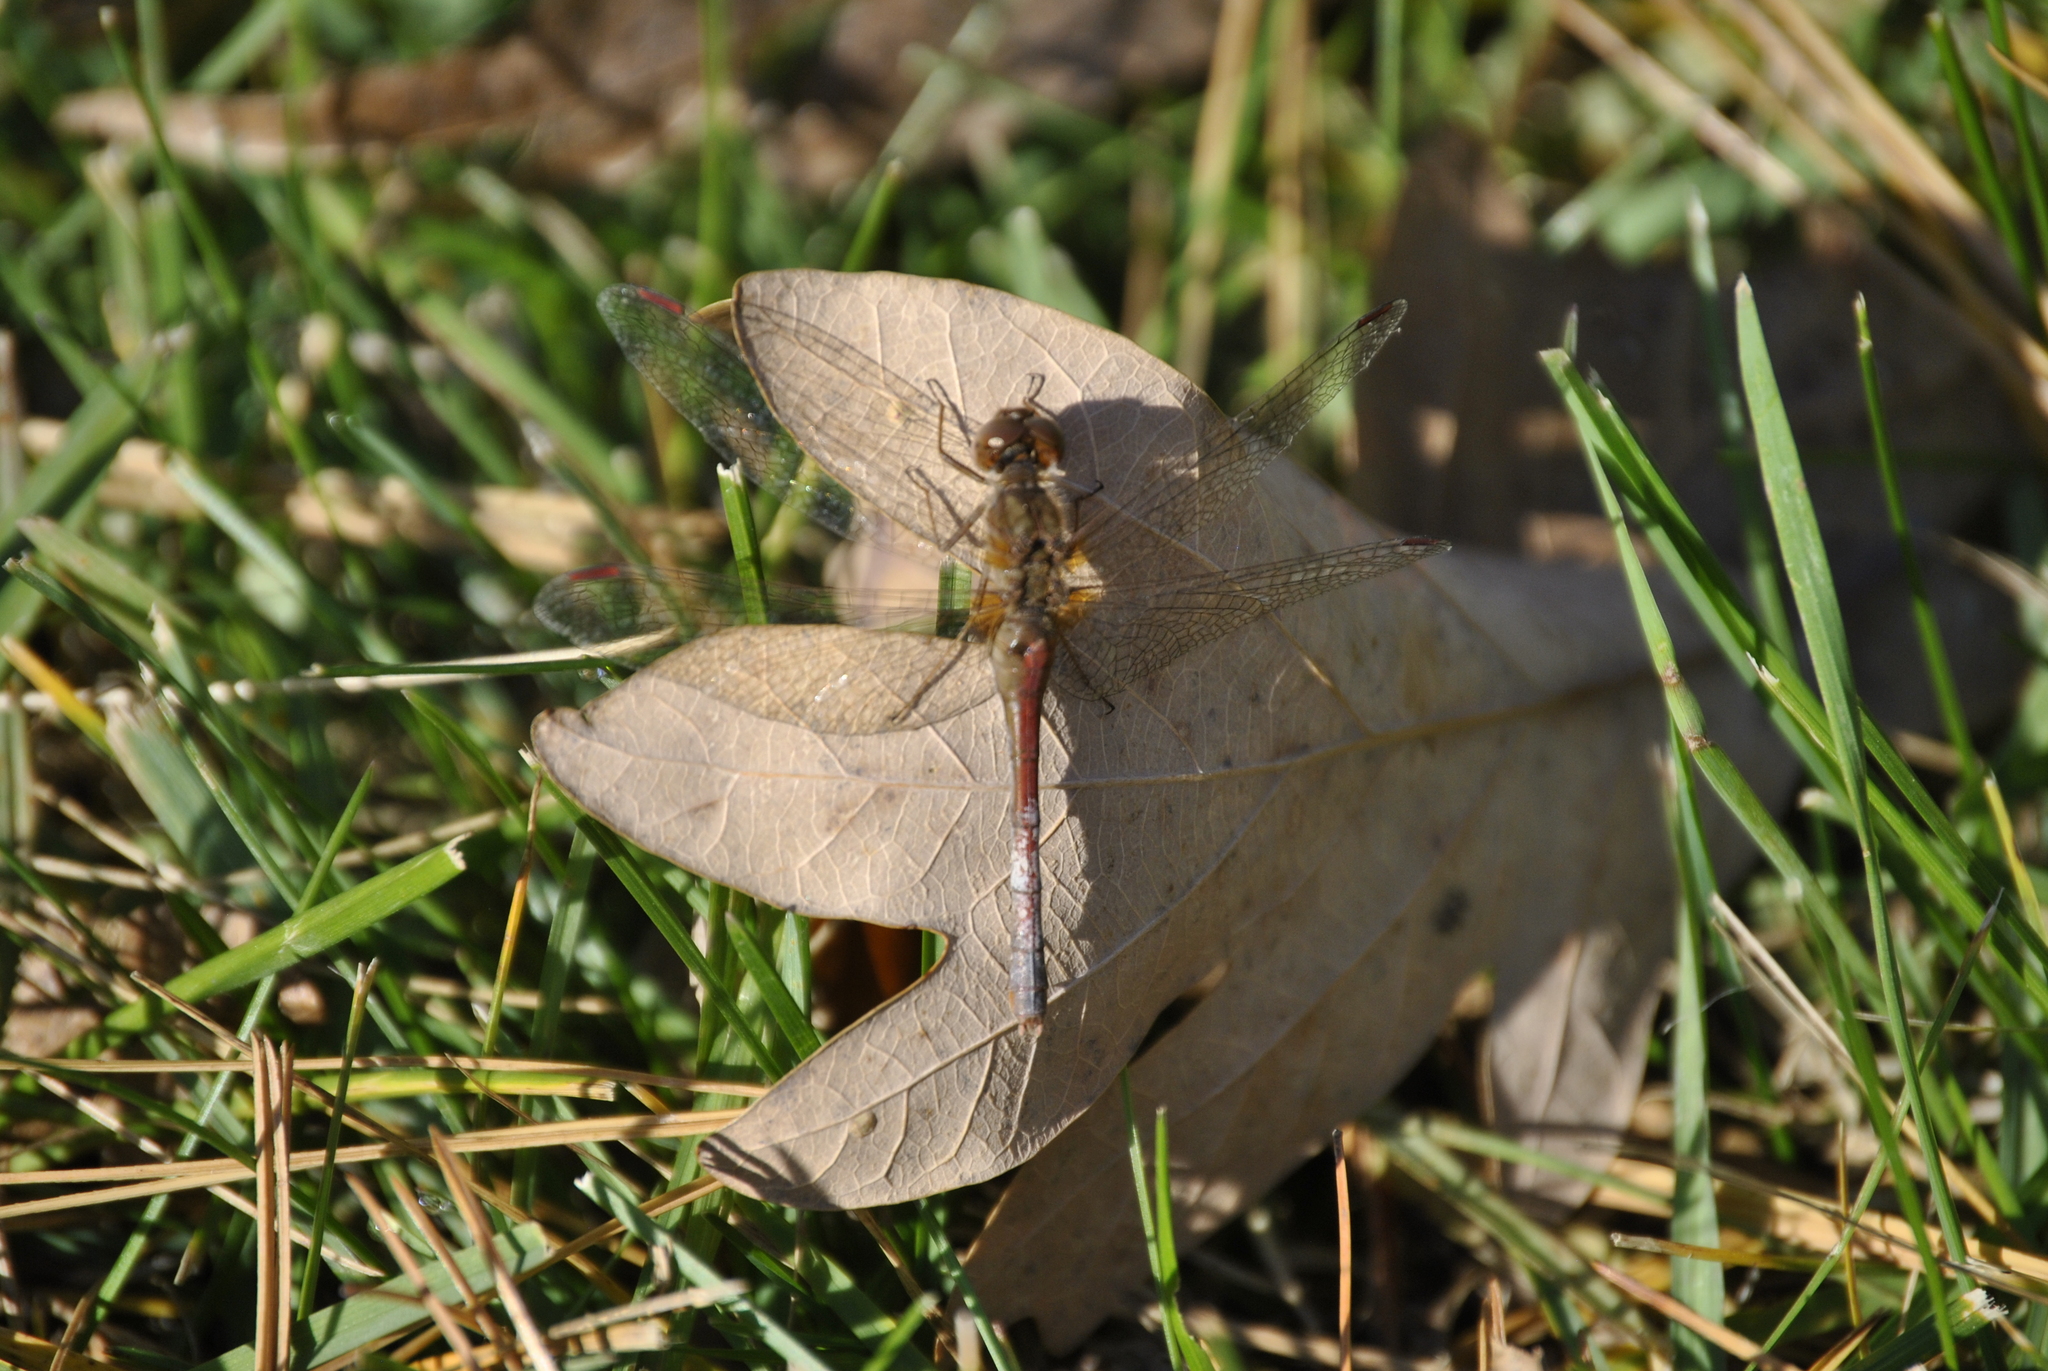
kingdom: Animalia
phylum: Arthropoda
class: Insecta
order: Odonata
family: Libellulidae
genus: Sympetrum
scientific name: Sympetrum vicinum
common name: Autumn meadowhawk
